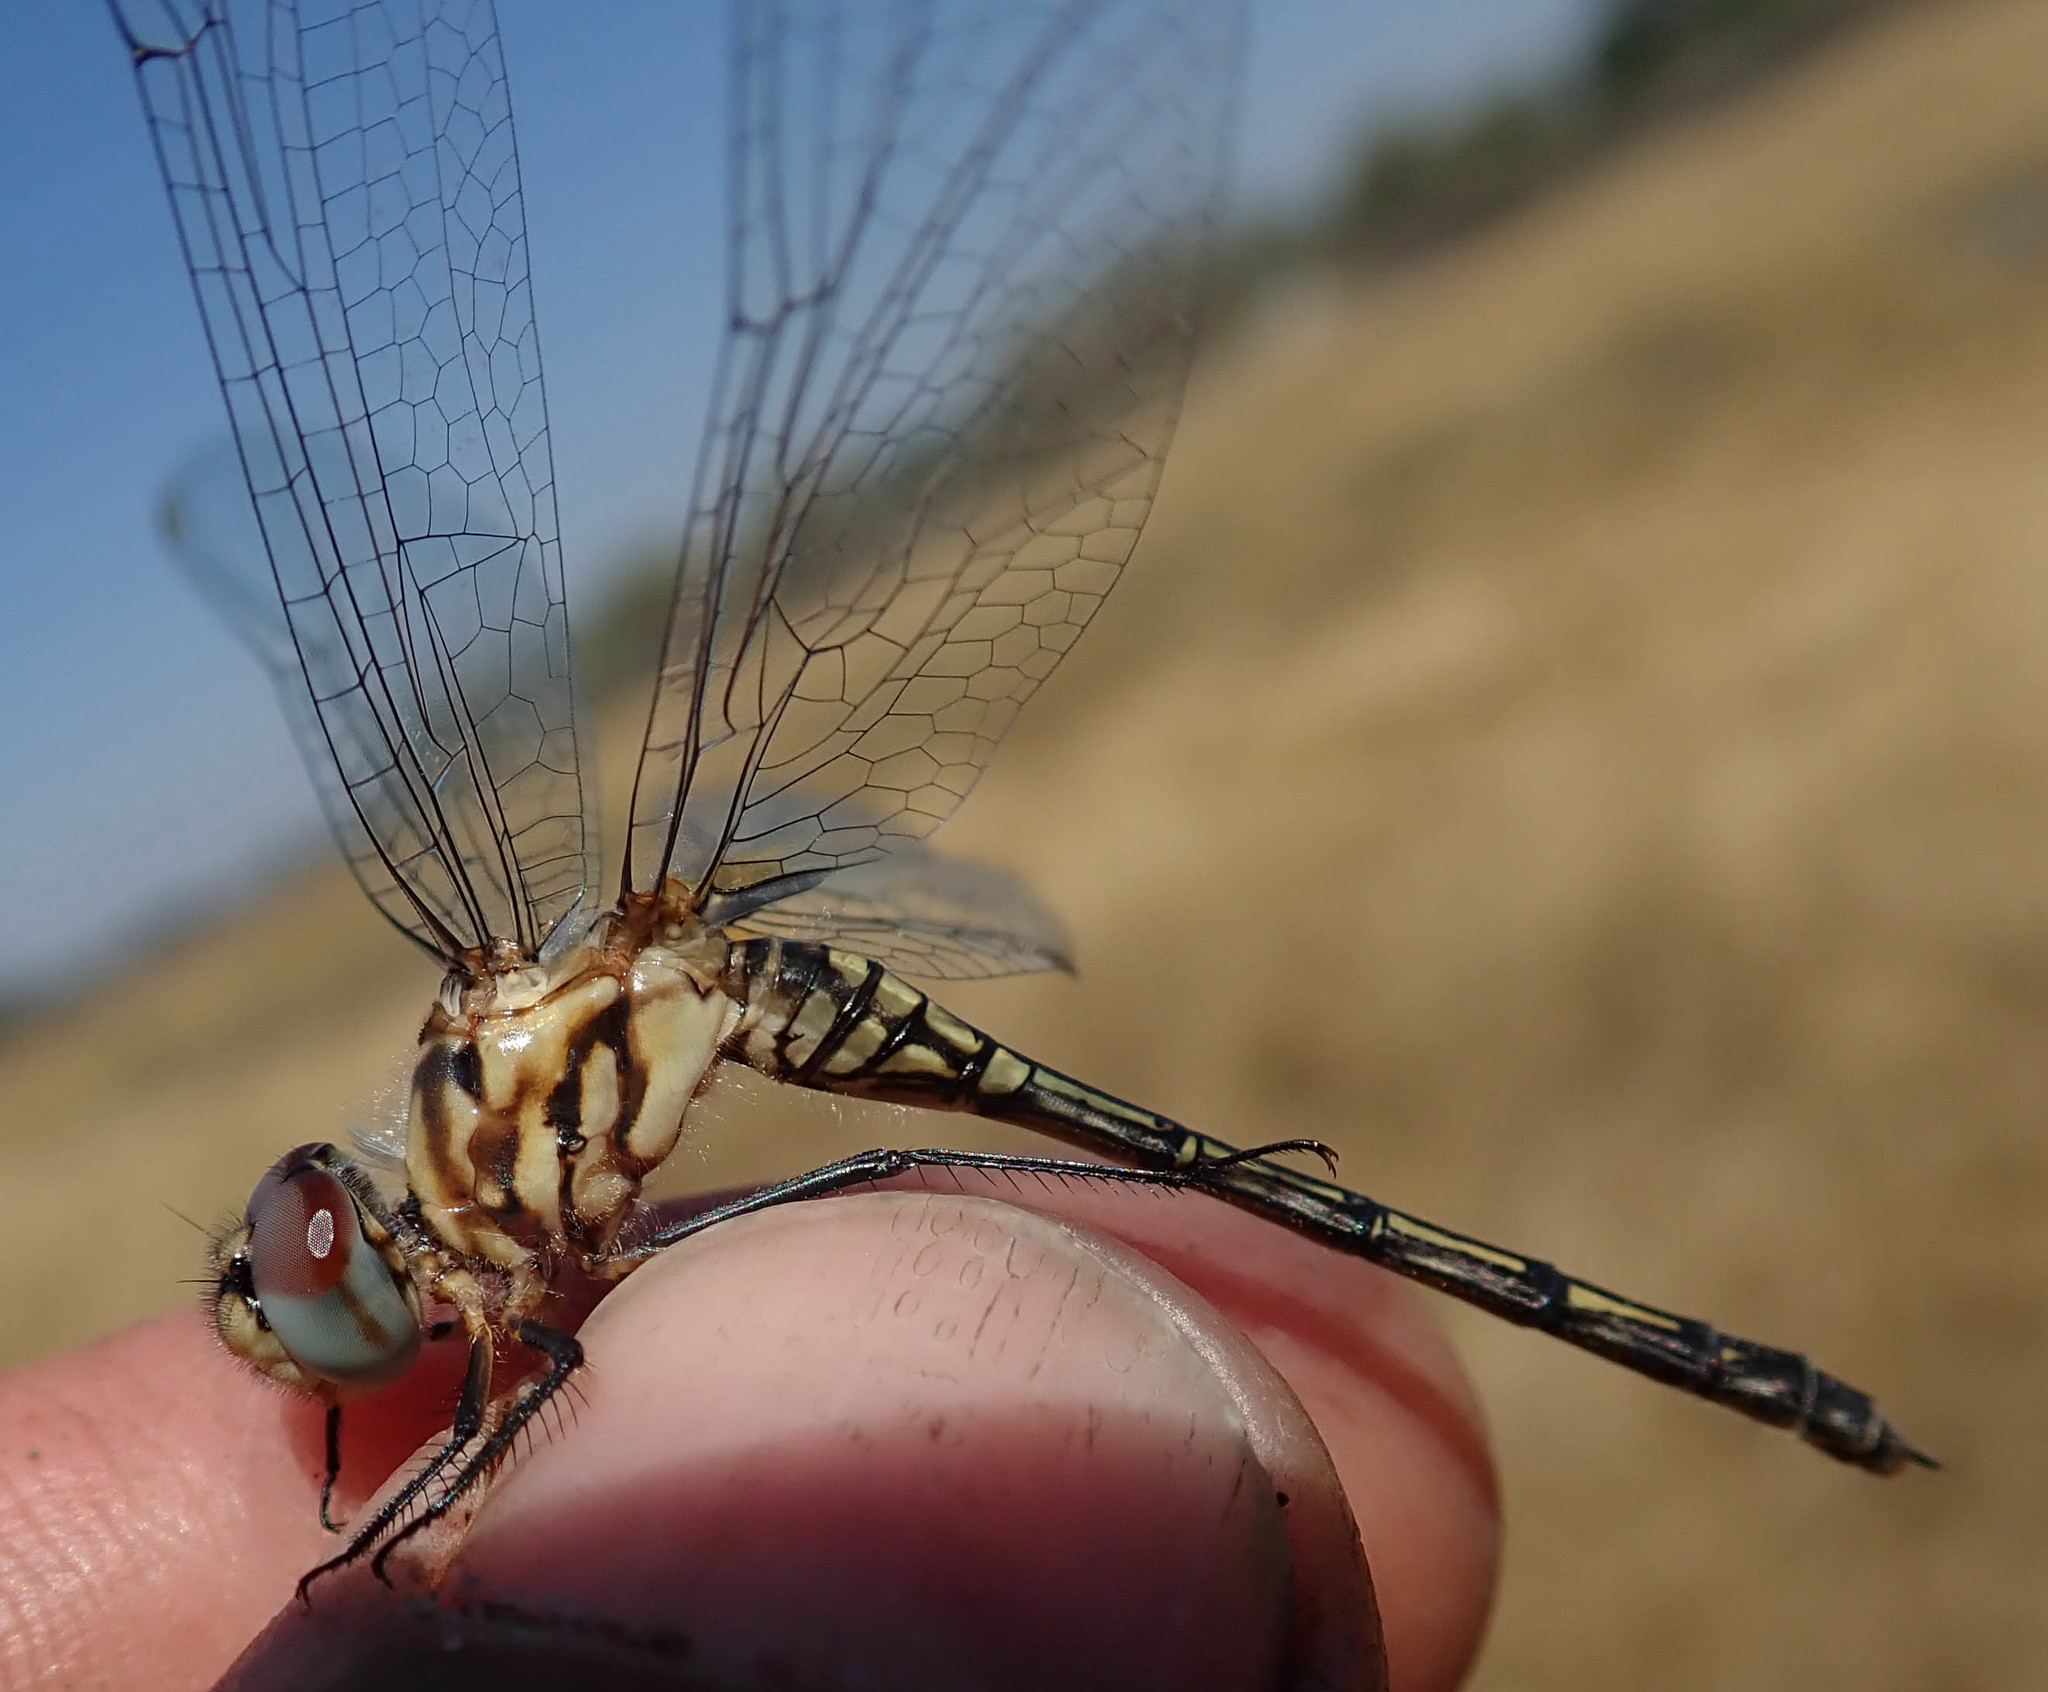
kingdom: Animalia
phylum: Arthropoda
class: Insecta
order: Odonata
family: Libellulidae
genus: Trithemis
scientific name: Trithemis hecate
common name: Silhouette dropwing
